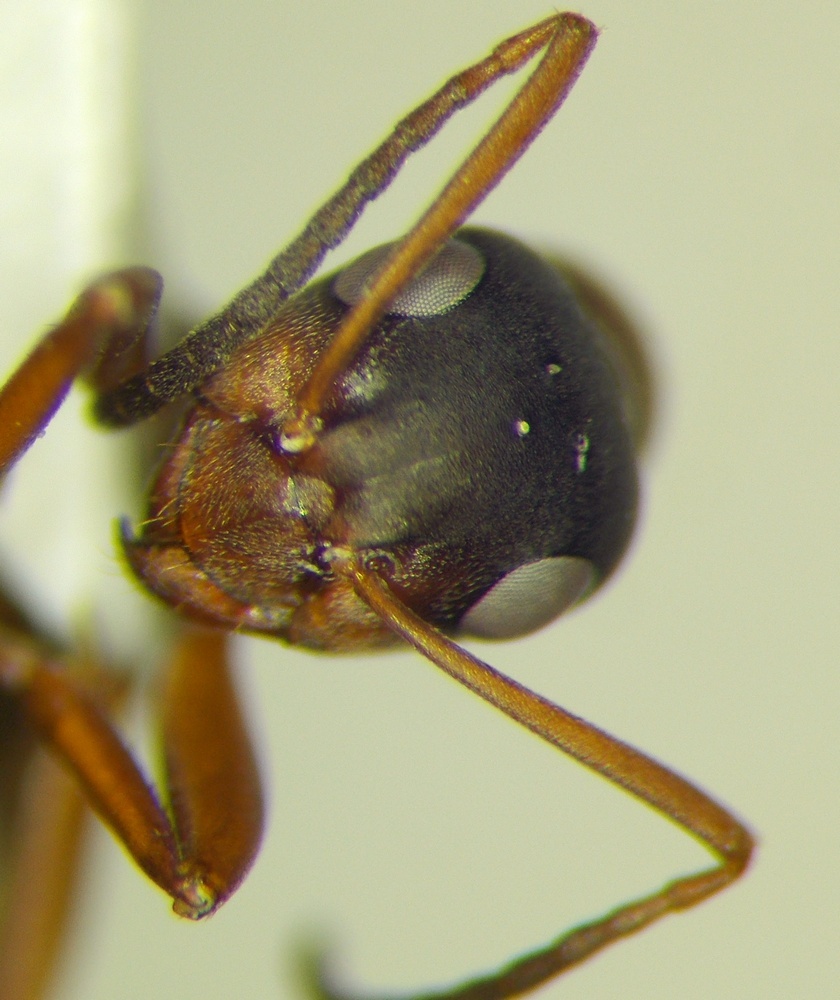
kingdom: Animalia
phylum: Arthropoda
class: Insecta
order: Hymenoptera
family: Formicidae
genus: Formica
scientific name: Formica cunicularia
